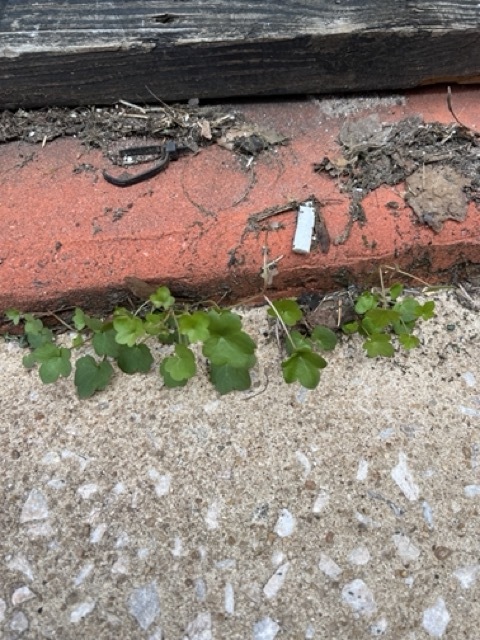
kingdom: Plantae
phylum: Tracheophyta
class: Magnoliopsida
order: Lamiales
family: Plantaginaceae
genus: Cymbalaria
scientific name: Cymbalaria muralis
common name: Ivy-leaved toadflax
